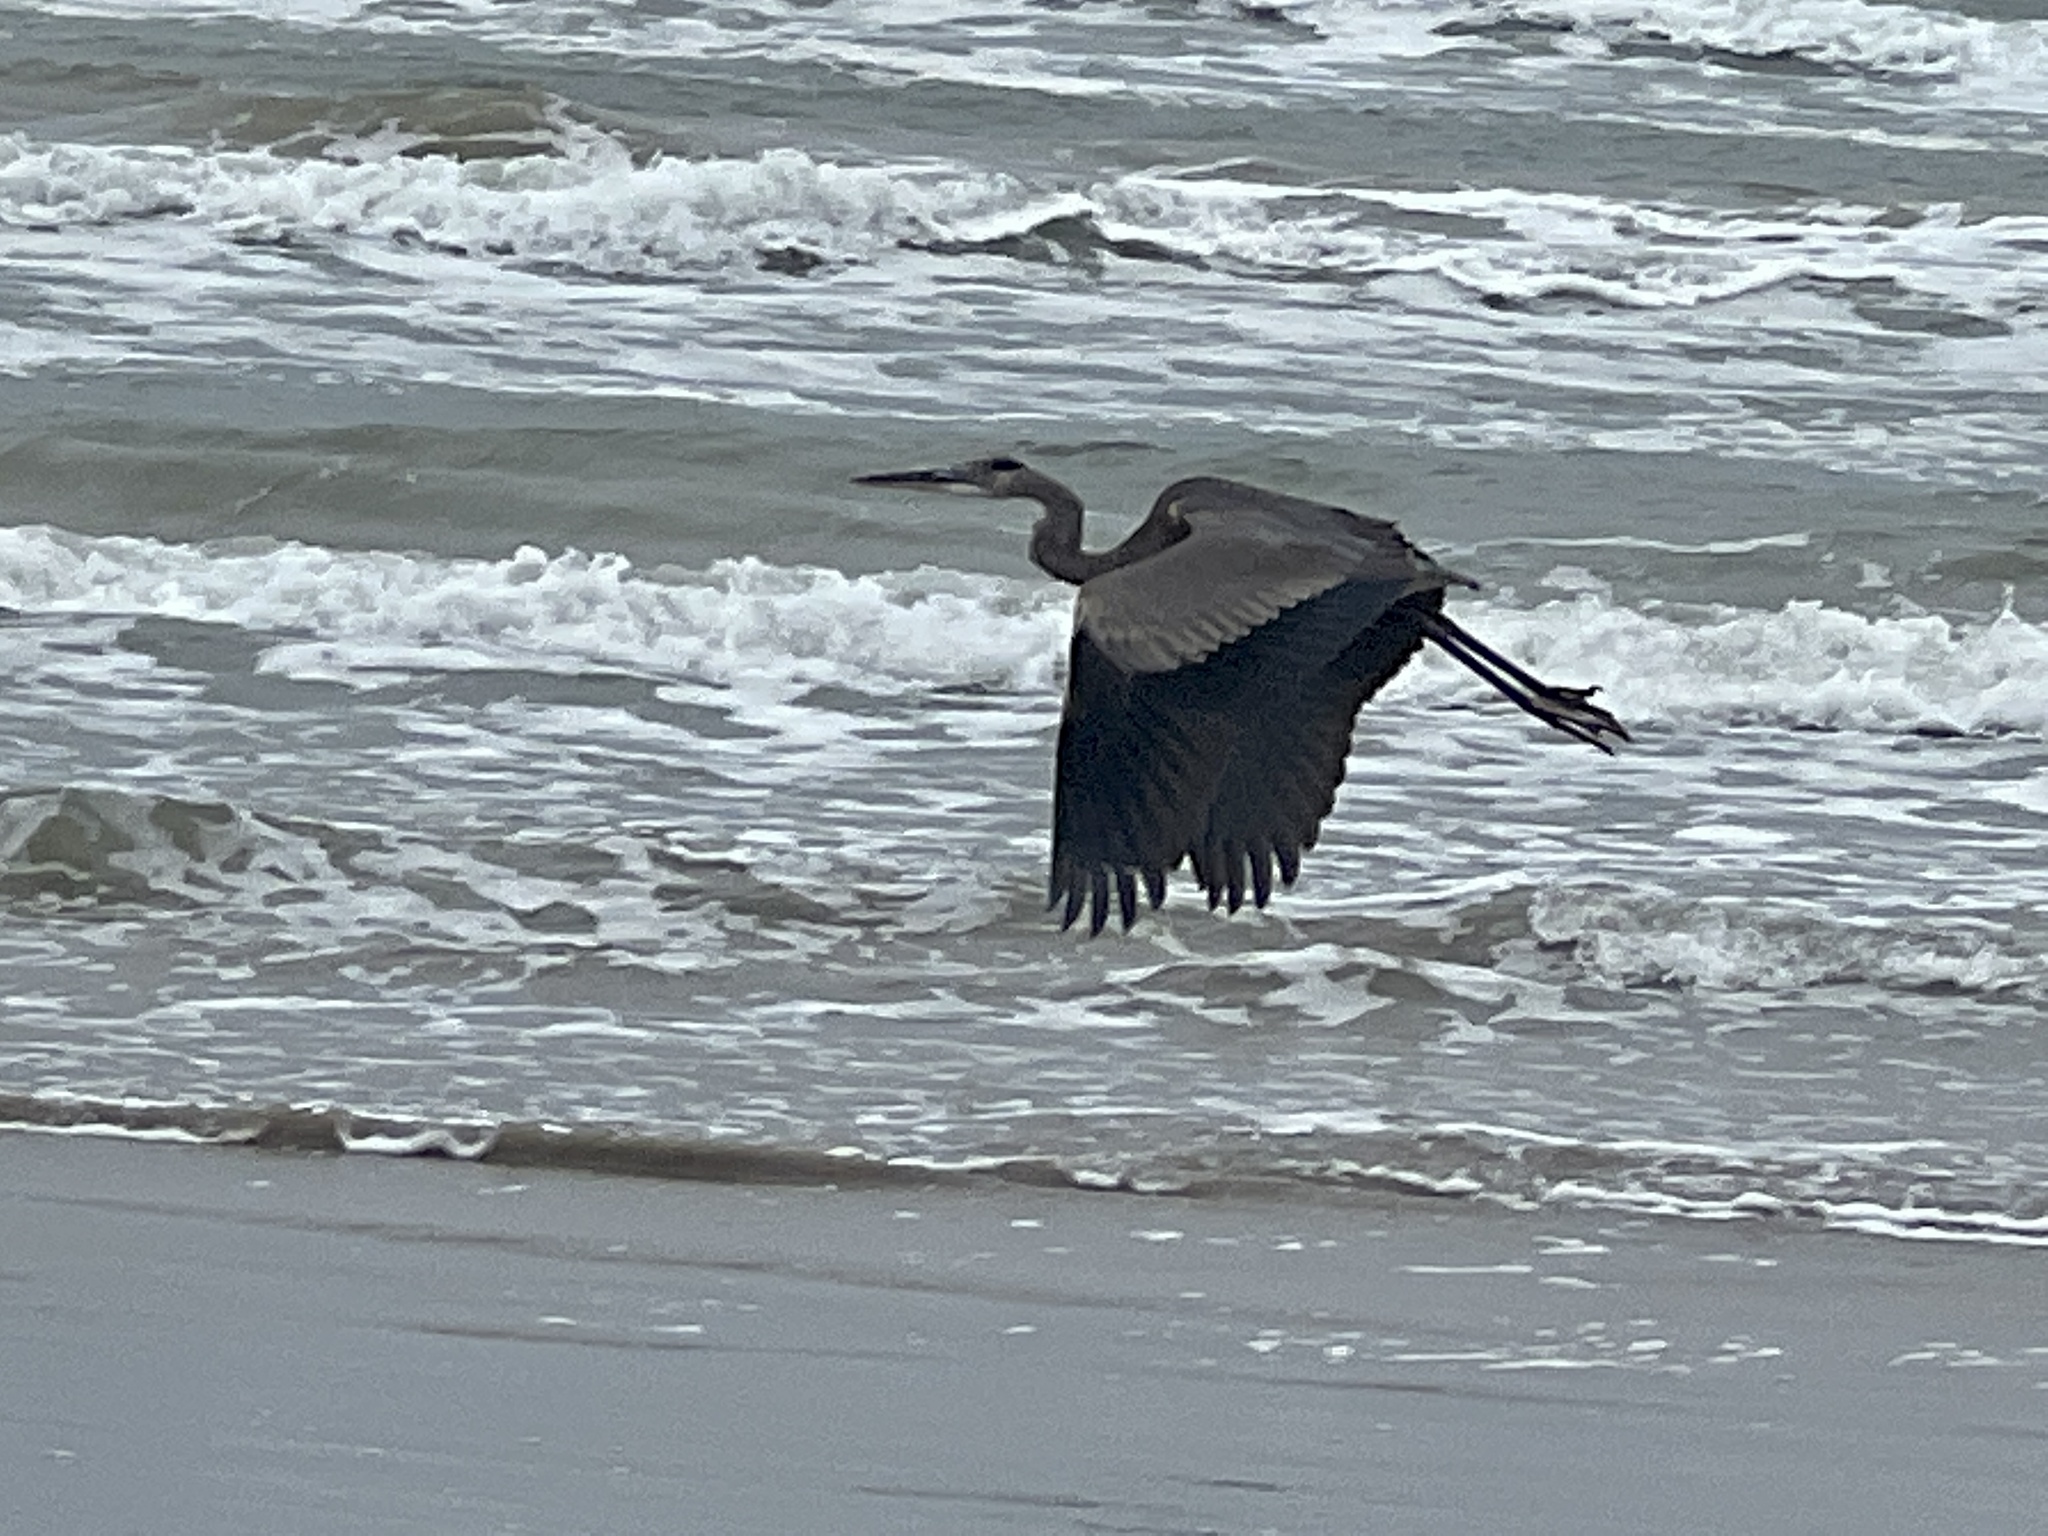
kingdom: Animalia
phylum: Chordata
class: Aves
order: Pelecaniformes
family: Ardeidae
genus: Ardea
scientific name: Ardea herodias
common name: Great blue heron
